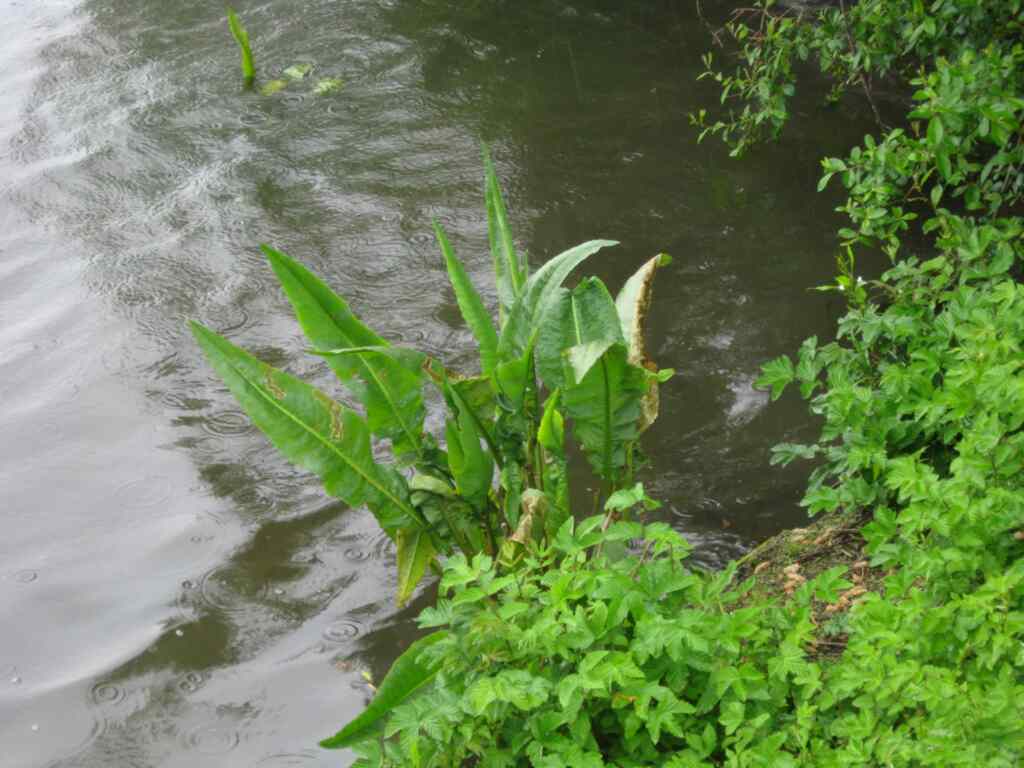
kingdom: Plantae
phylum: Tracheophyta
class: Magnoliopsida
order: Caryophyllales
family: Polygonaceae
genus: Rumex
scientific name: Rumex hydrolapathum
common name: Water dock
